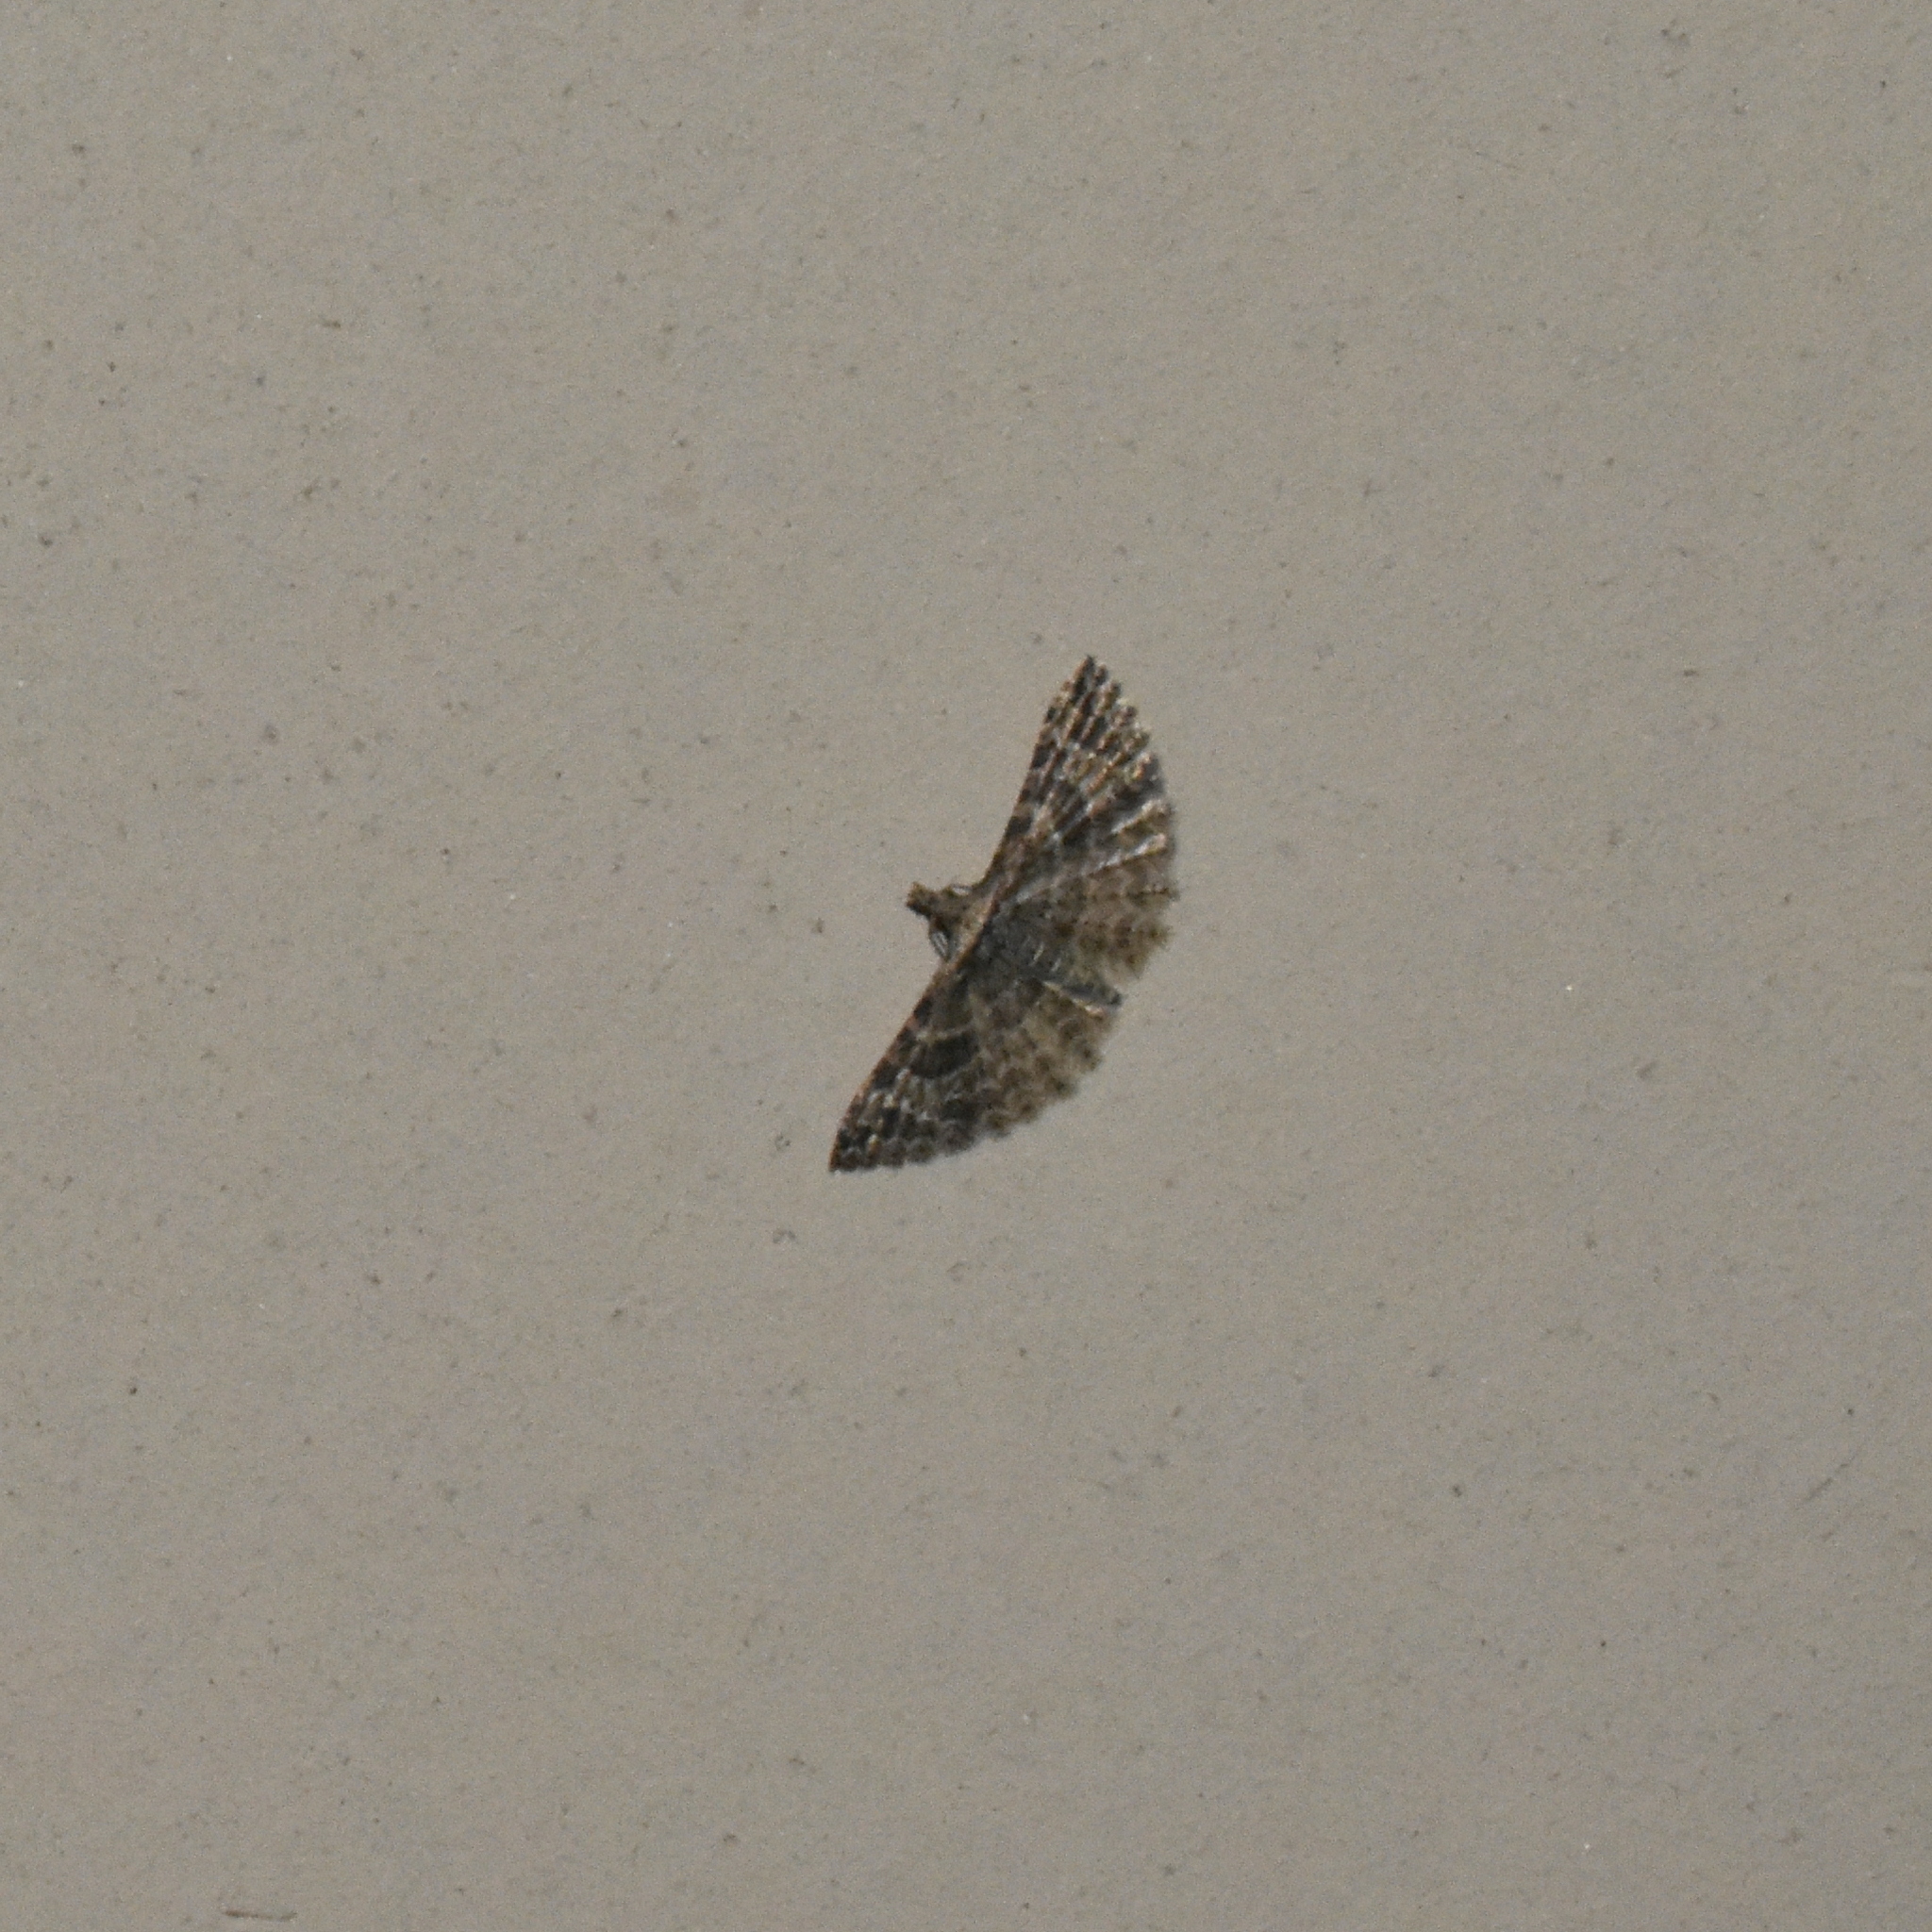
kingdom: Animalia
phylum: Arthropoda
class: Insecta
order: Lepidoptera
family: Alucitidae
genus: Alucita
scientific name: Alucita montana
